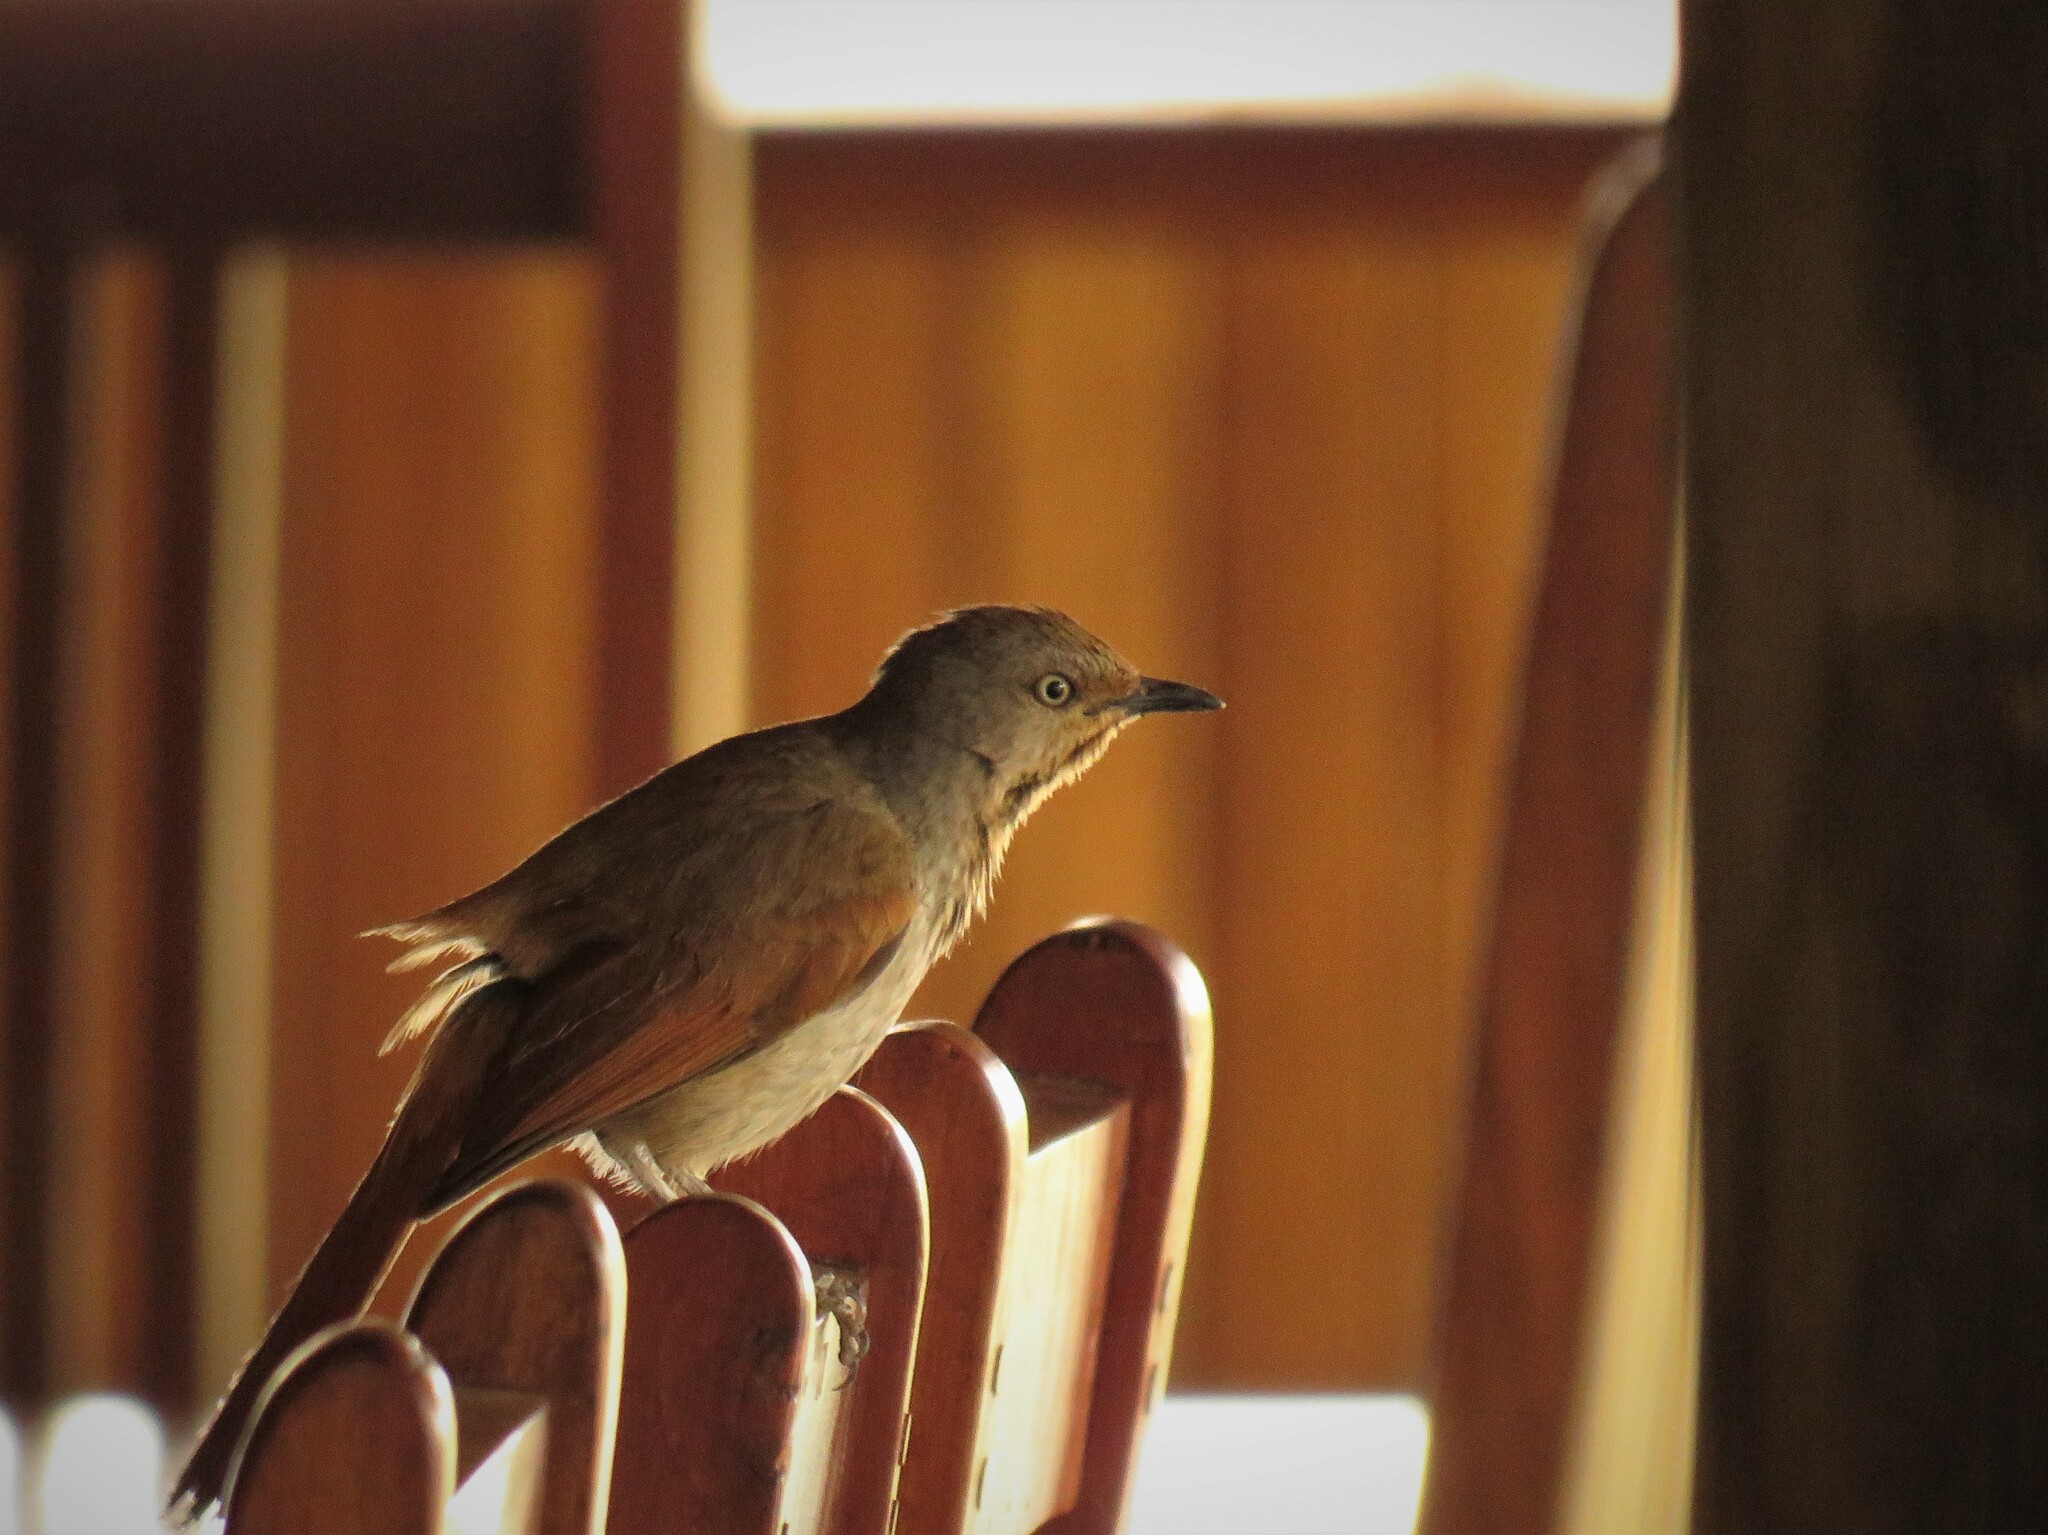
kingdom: Animalia
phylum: Chordata
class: Aves
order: Passeriformes
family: Muscicapidae
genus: Cichladusa
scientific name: Cichladusa arquata
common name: Collared palm thrush
